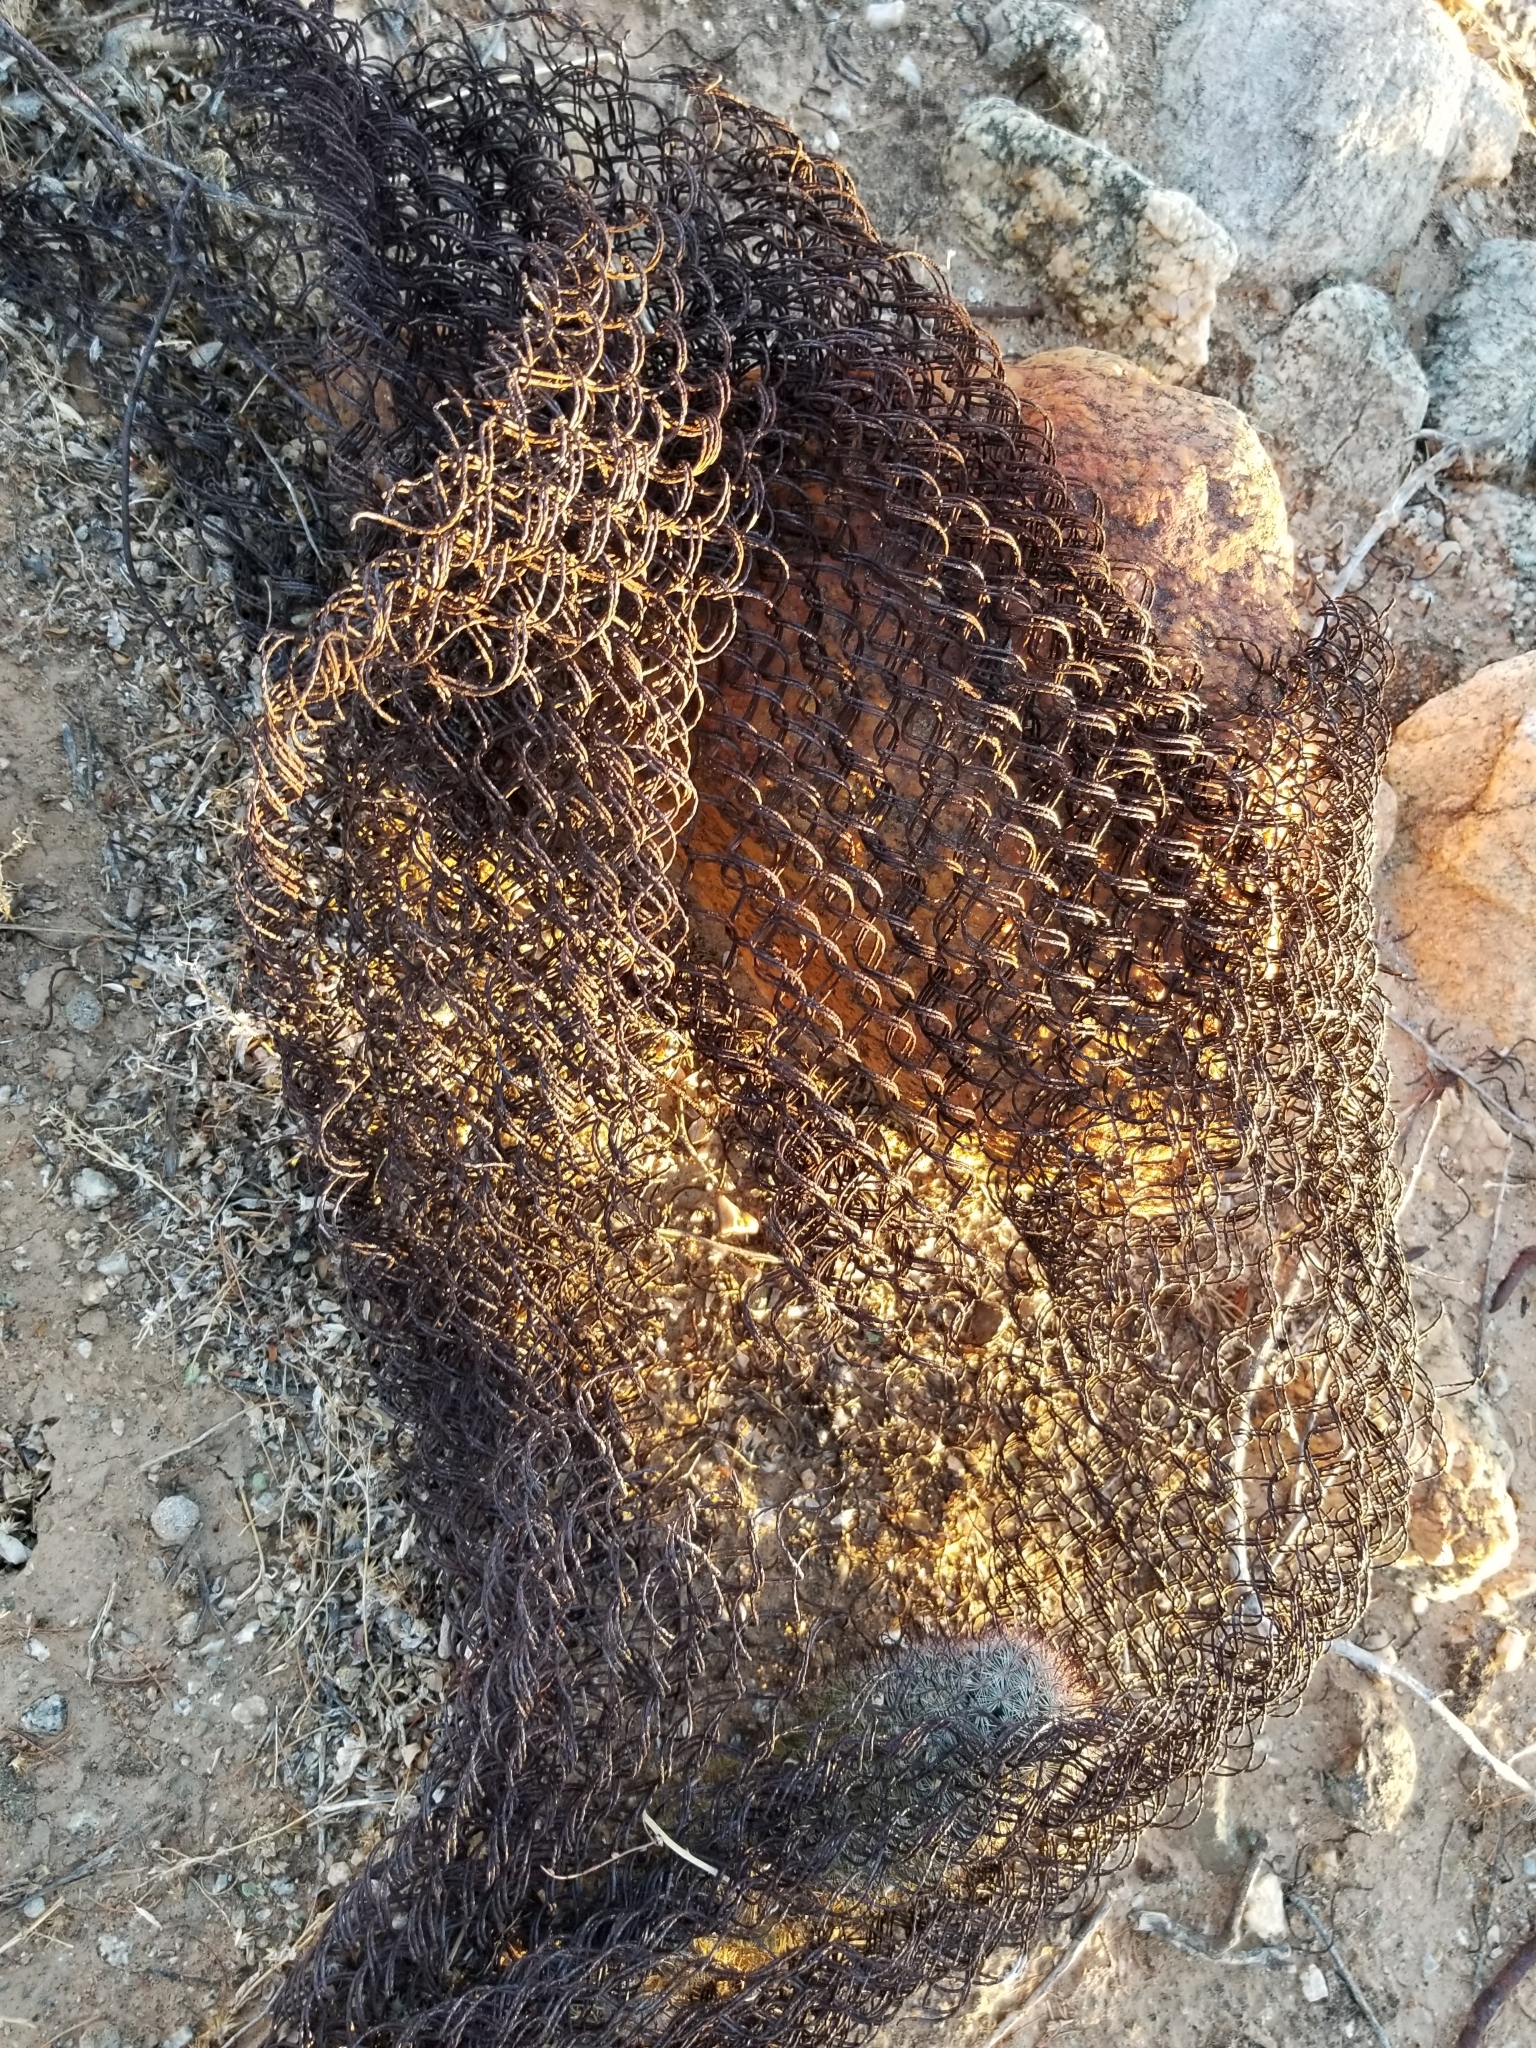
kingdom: Plantae
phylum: Tracheophyta
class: Magnoliopsida
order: Caryophyllales
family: Cactaceae
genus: Cochemiea
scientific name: Cochemiea grahamii
